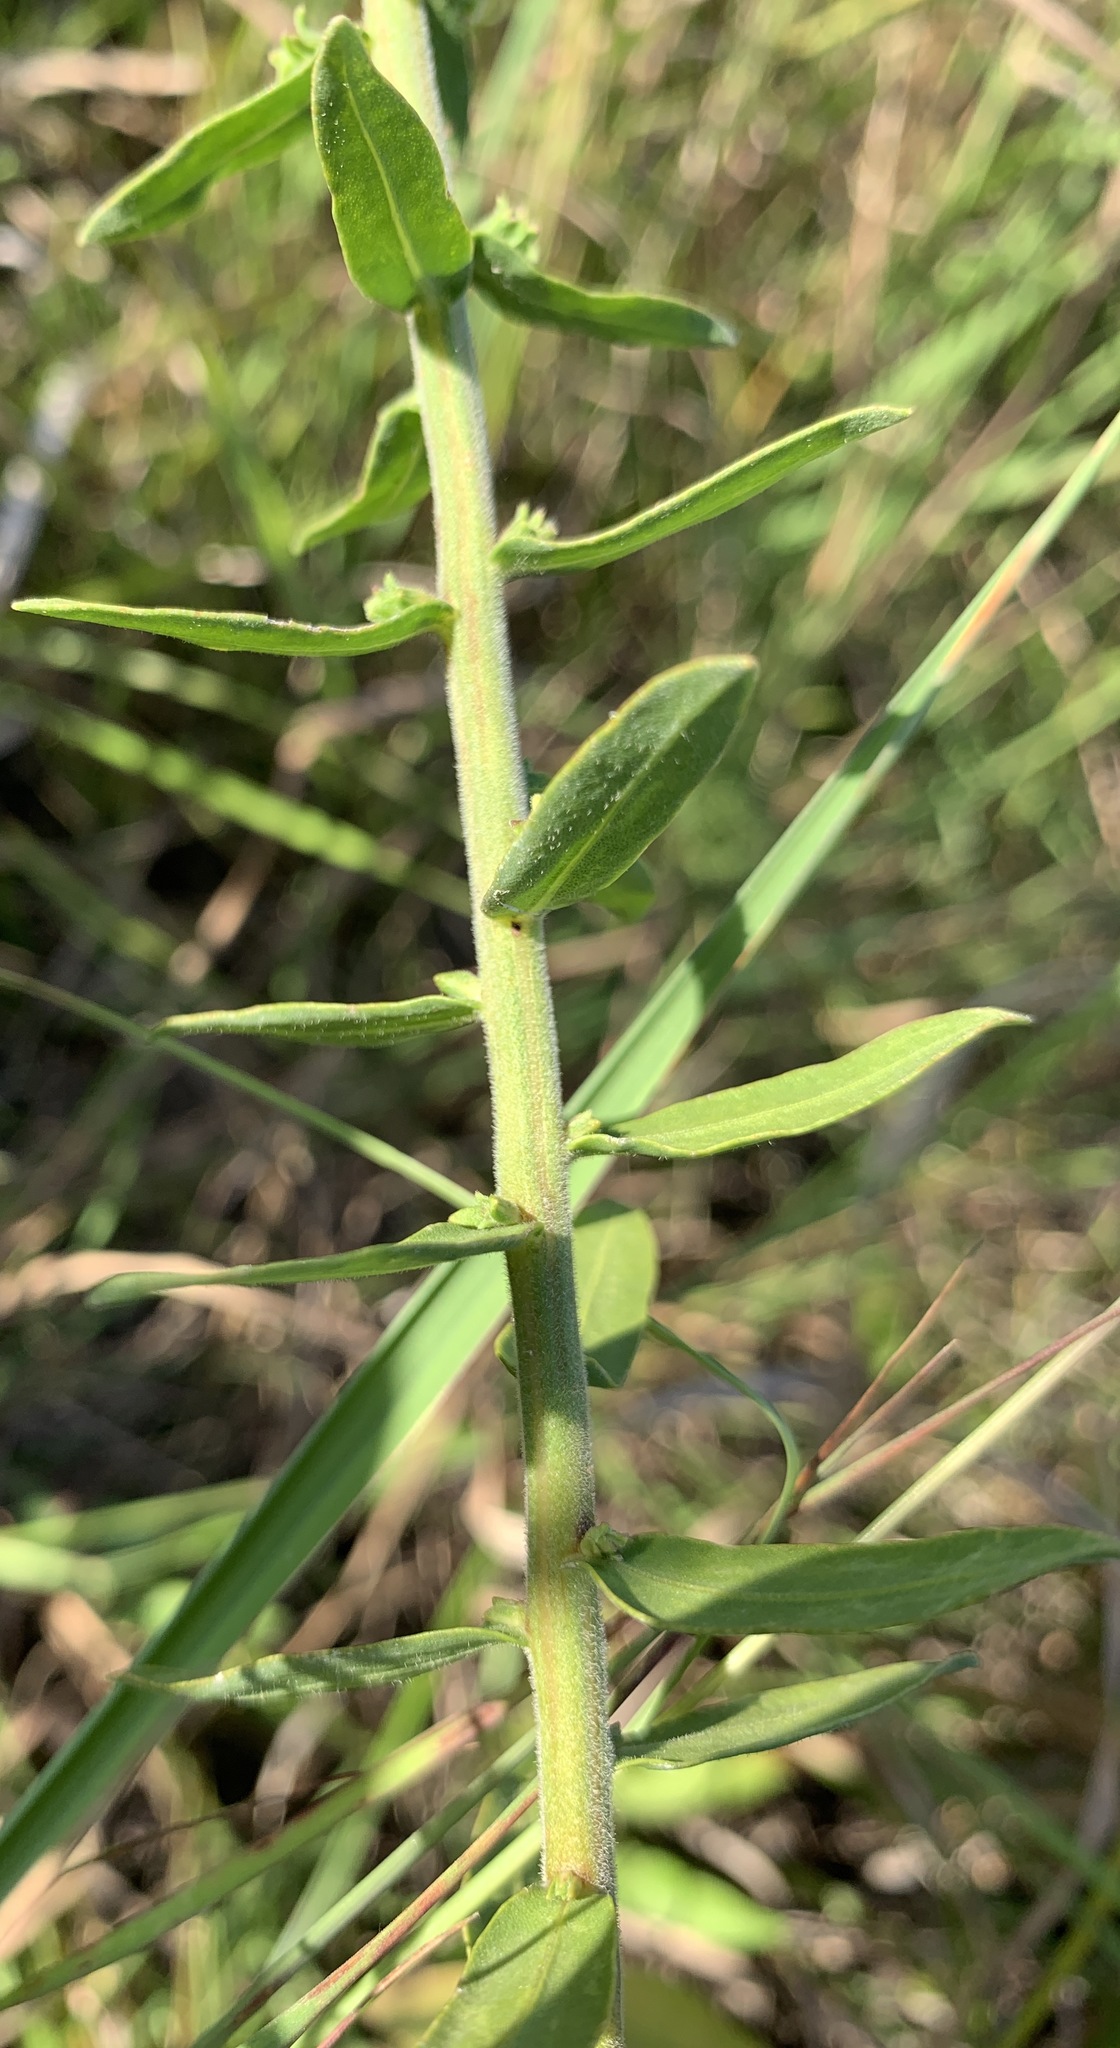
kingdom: Plantae
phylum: Tracheophyta
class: Magnoliopsida
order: Asterales
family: Asteraceae
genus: Liatris
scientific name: Liatris squarrulosa
